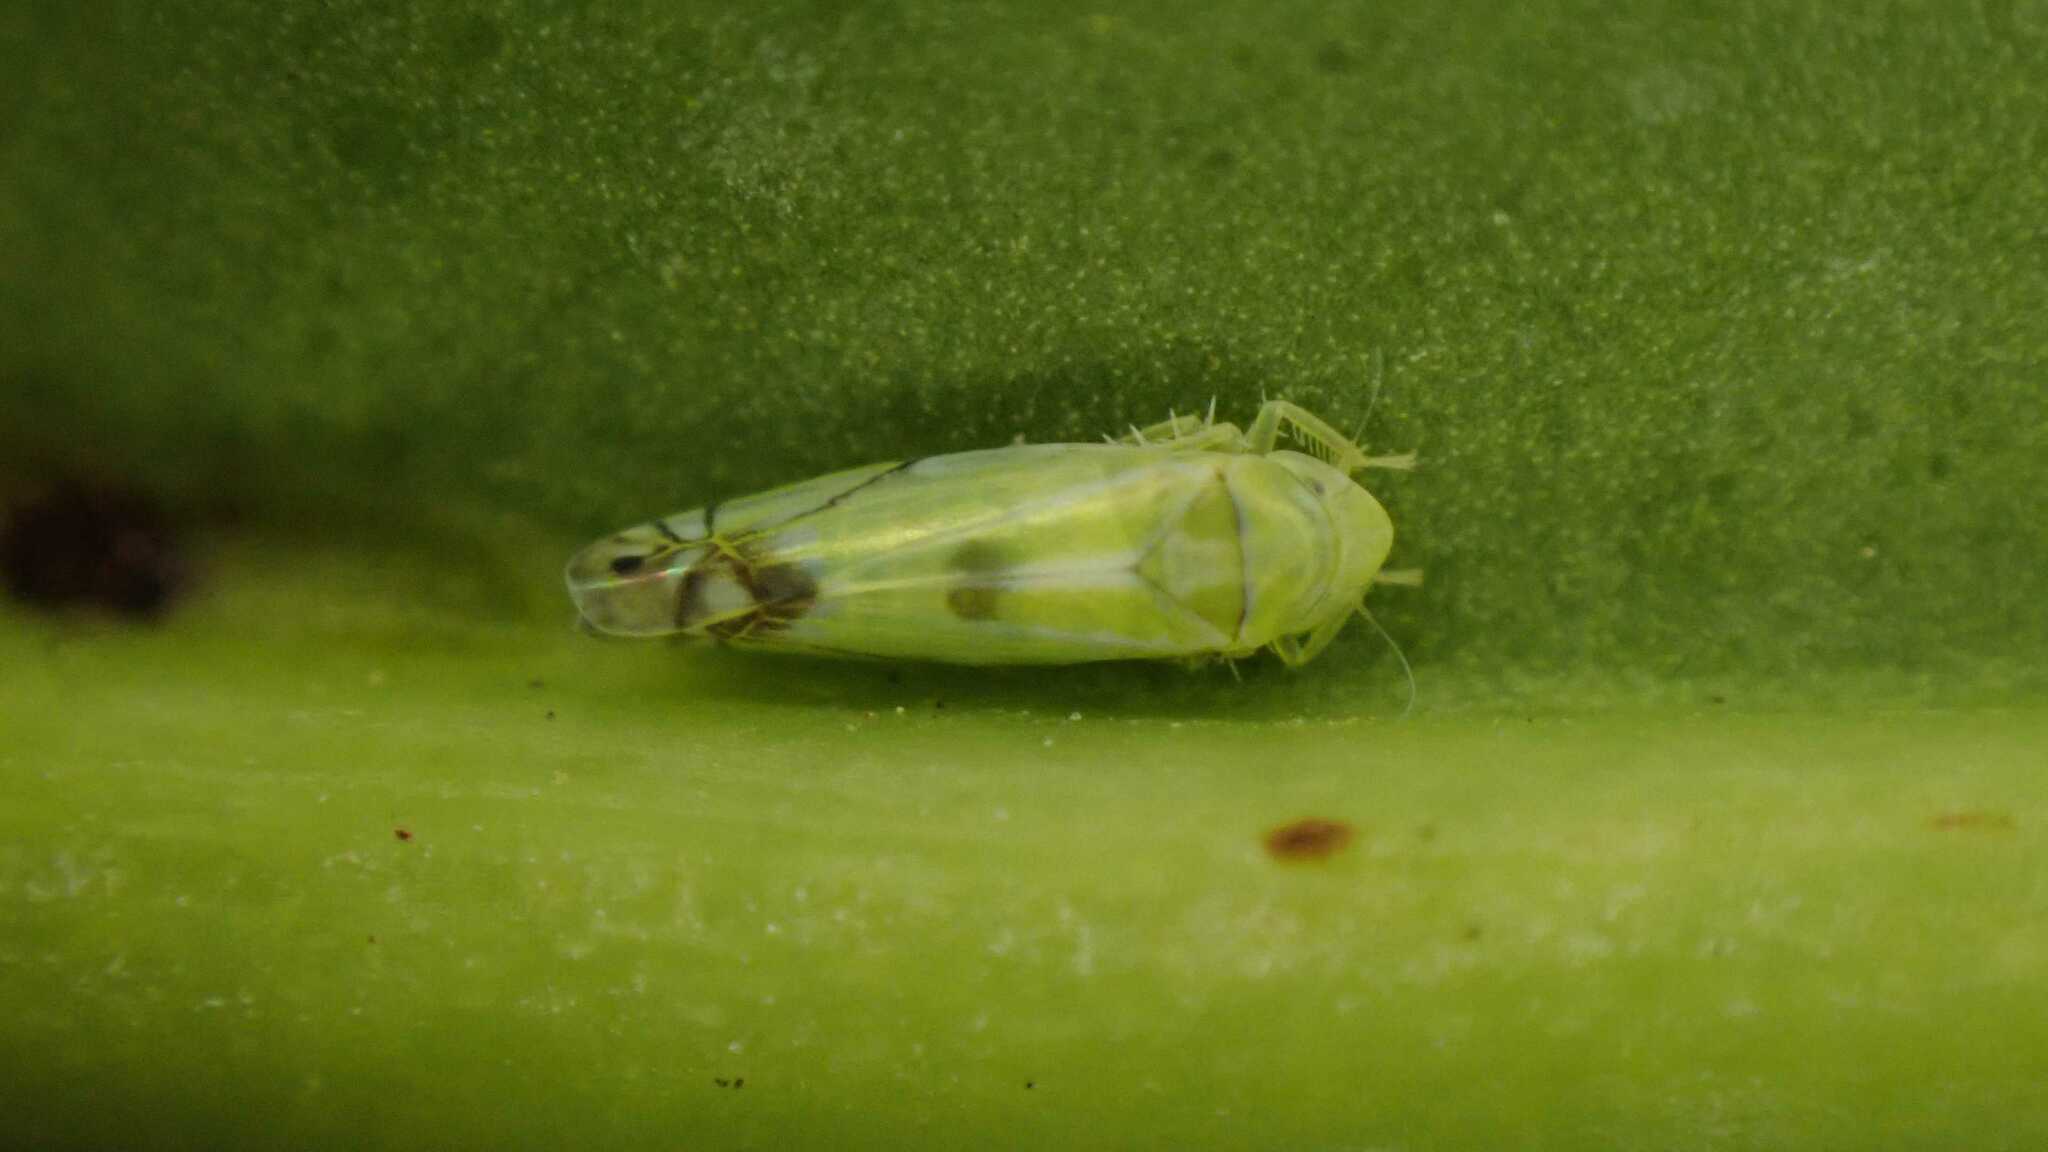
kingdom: Animalia
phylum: Arthropoda
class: Insecta
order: Hemiptera
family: Cicadellidae
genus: Zyginella
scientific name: Zyginella pulchra
